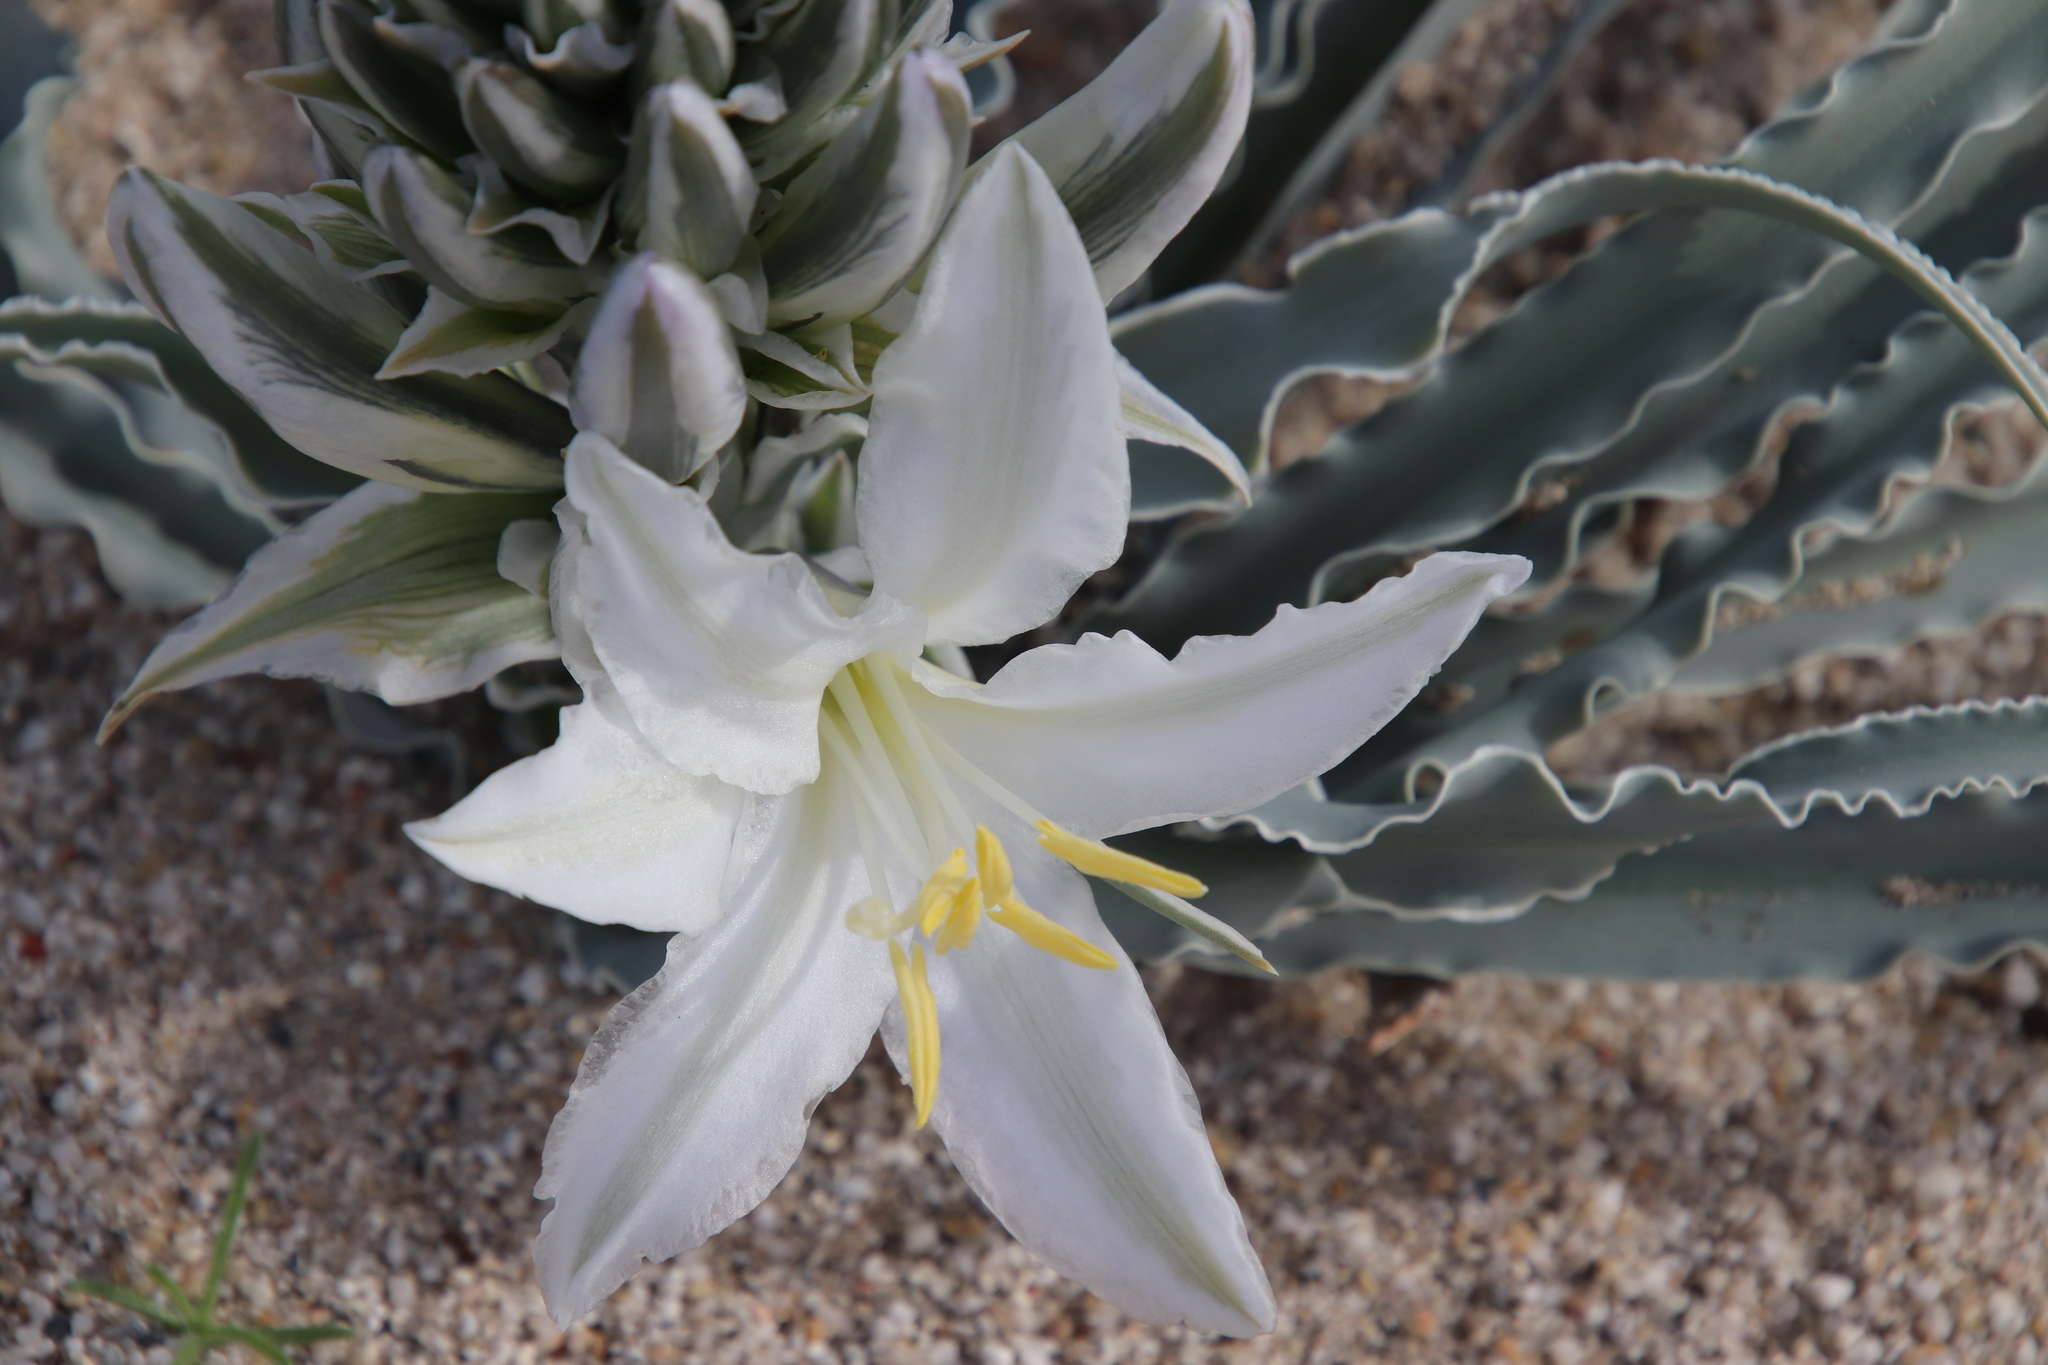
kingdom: Plantae
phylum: Tracheophyta
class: Liliopsida
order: Asparagales
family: Asparagaceae
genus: Hesperocallis
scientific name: Hesperocallis undulata
